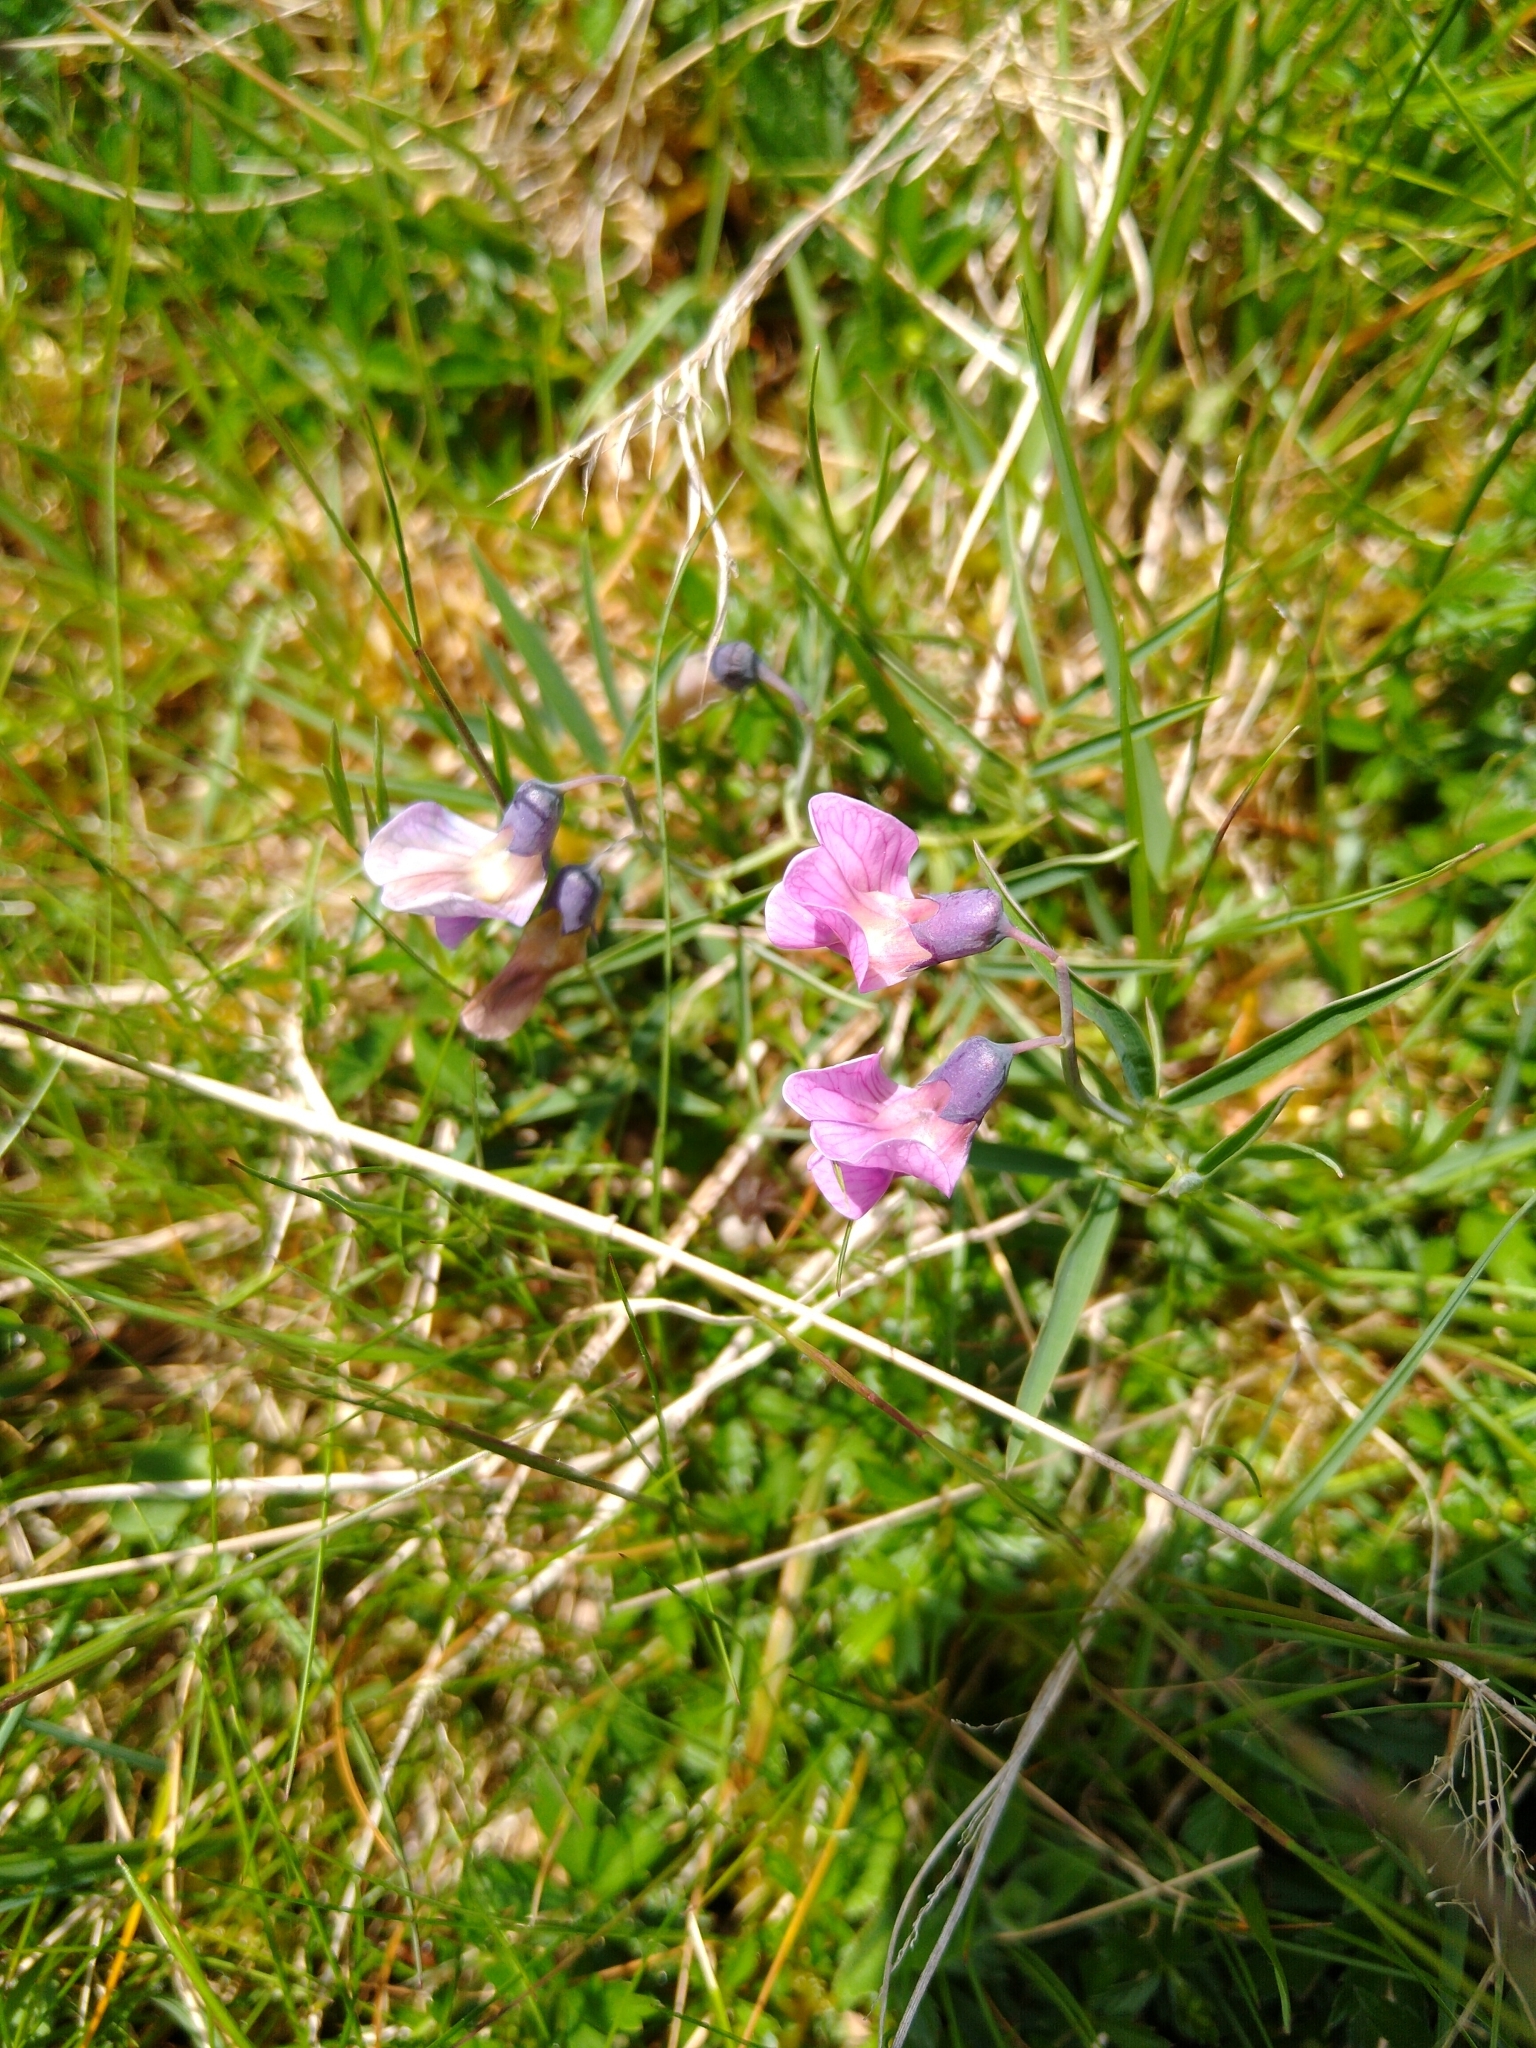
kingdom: Plantae
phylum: Tracheophyta
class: Magnoliopsida
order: Fabales
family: Fabaceae
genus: Lathyrus
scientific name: Lathyrus linifolius
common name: Bitter-vetch
